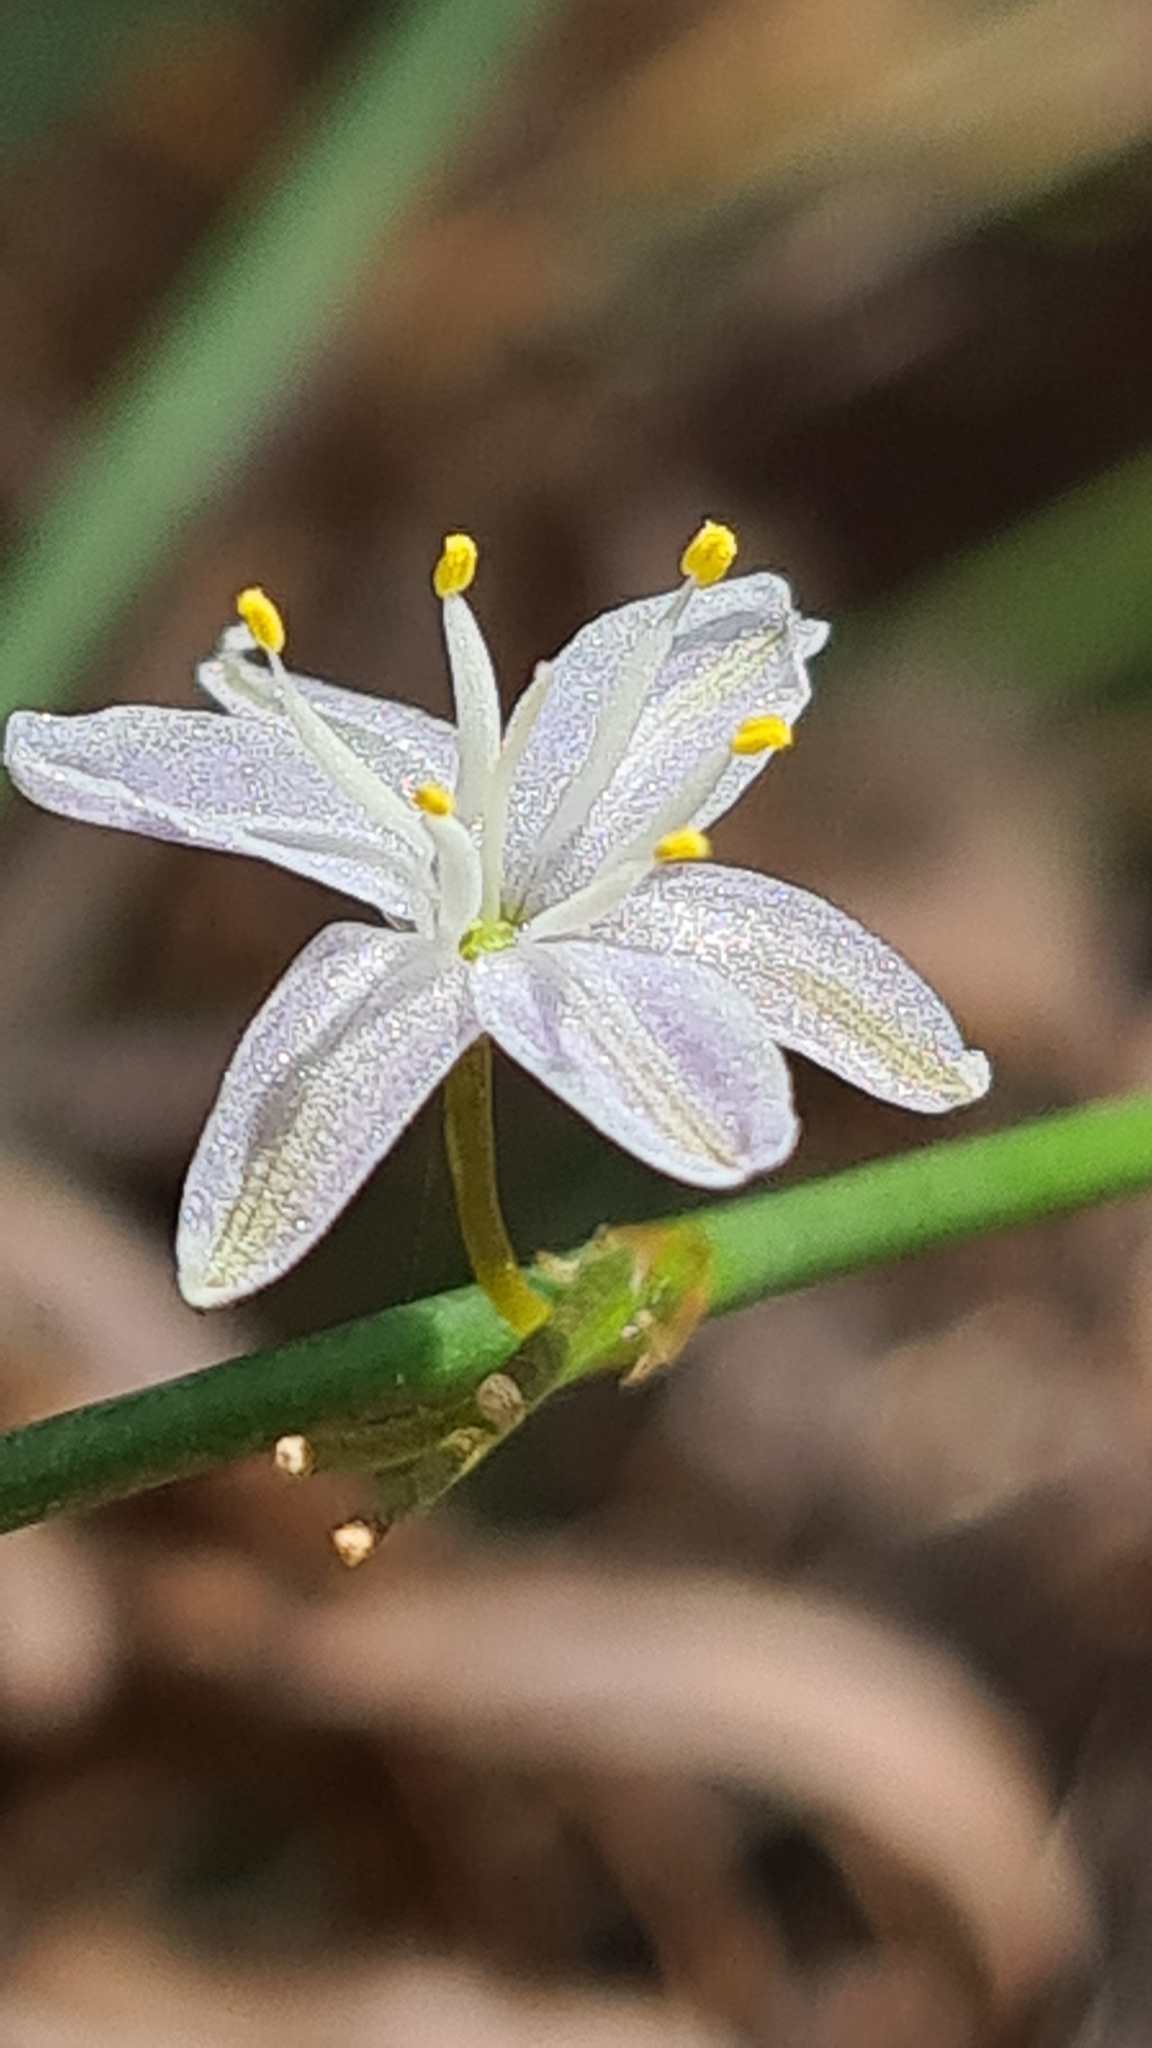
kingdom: Plantae
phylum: Tracheophyta
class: Liliopsida
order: Asparagales
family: Asphodelaceae
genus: Caesia
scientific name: Caesia parviflora
